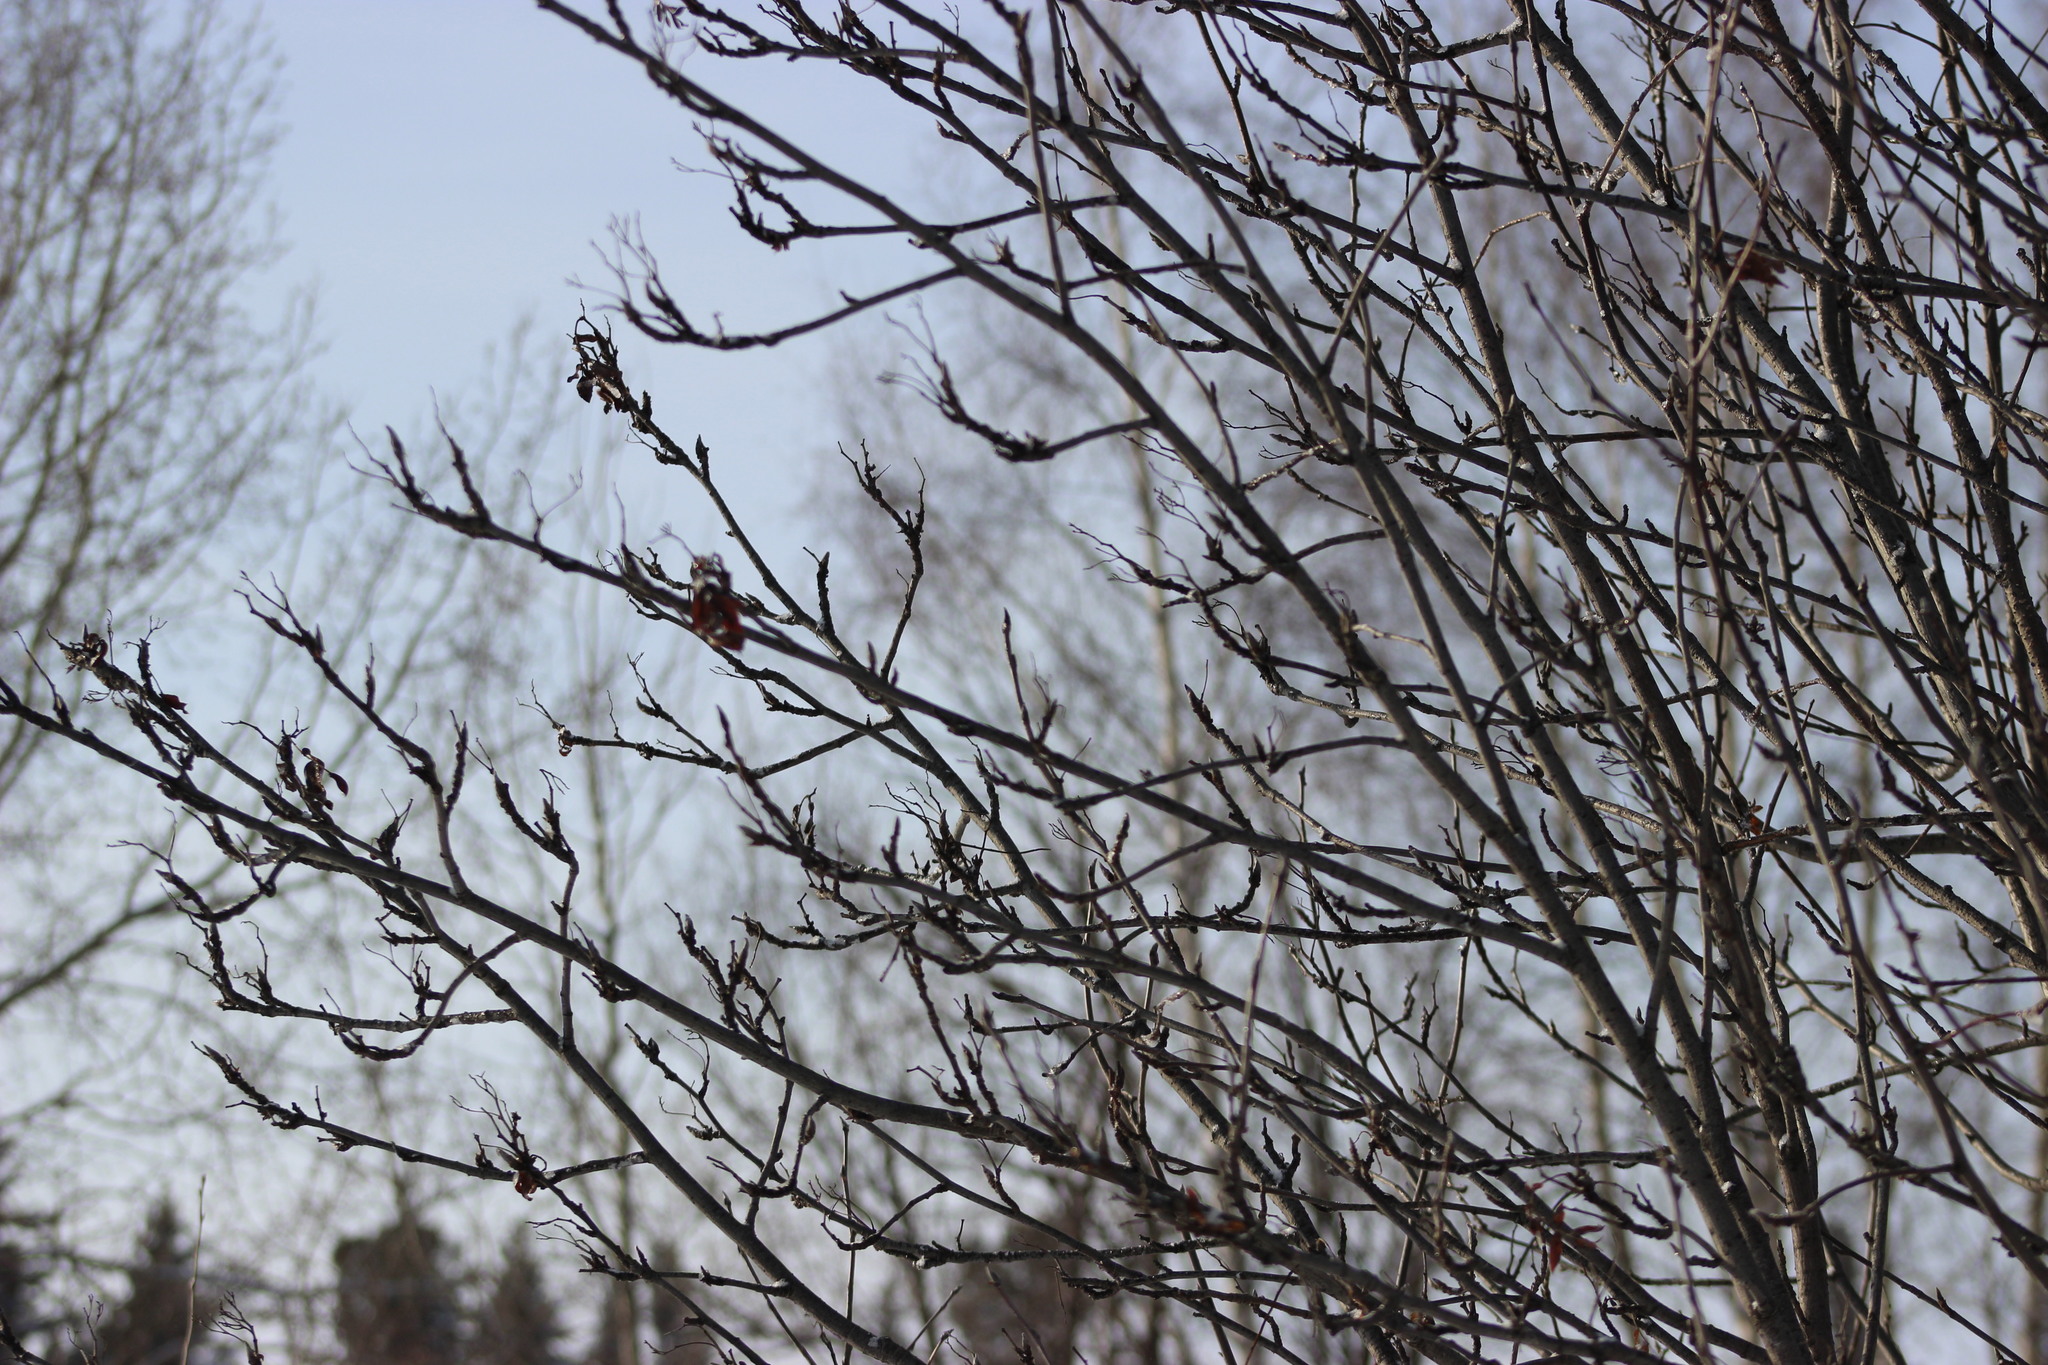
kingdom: Plantae
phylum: Tracheophyta
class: Magnoliopsida
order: Rosales
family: Rosaceae
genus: Sorbus
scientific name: Sorbus aucuparia
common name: Rowan
